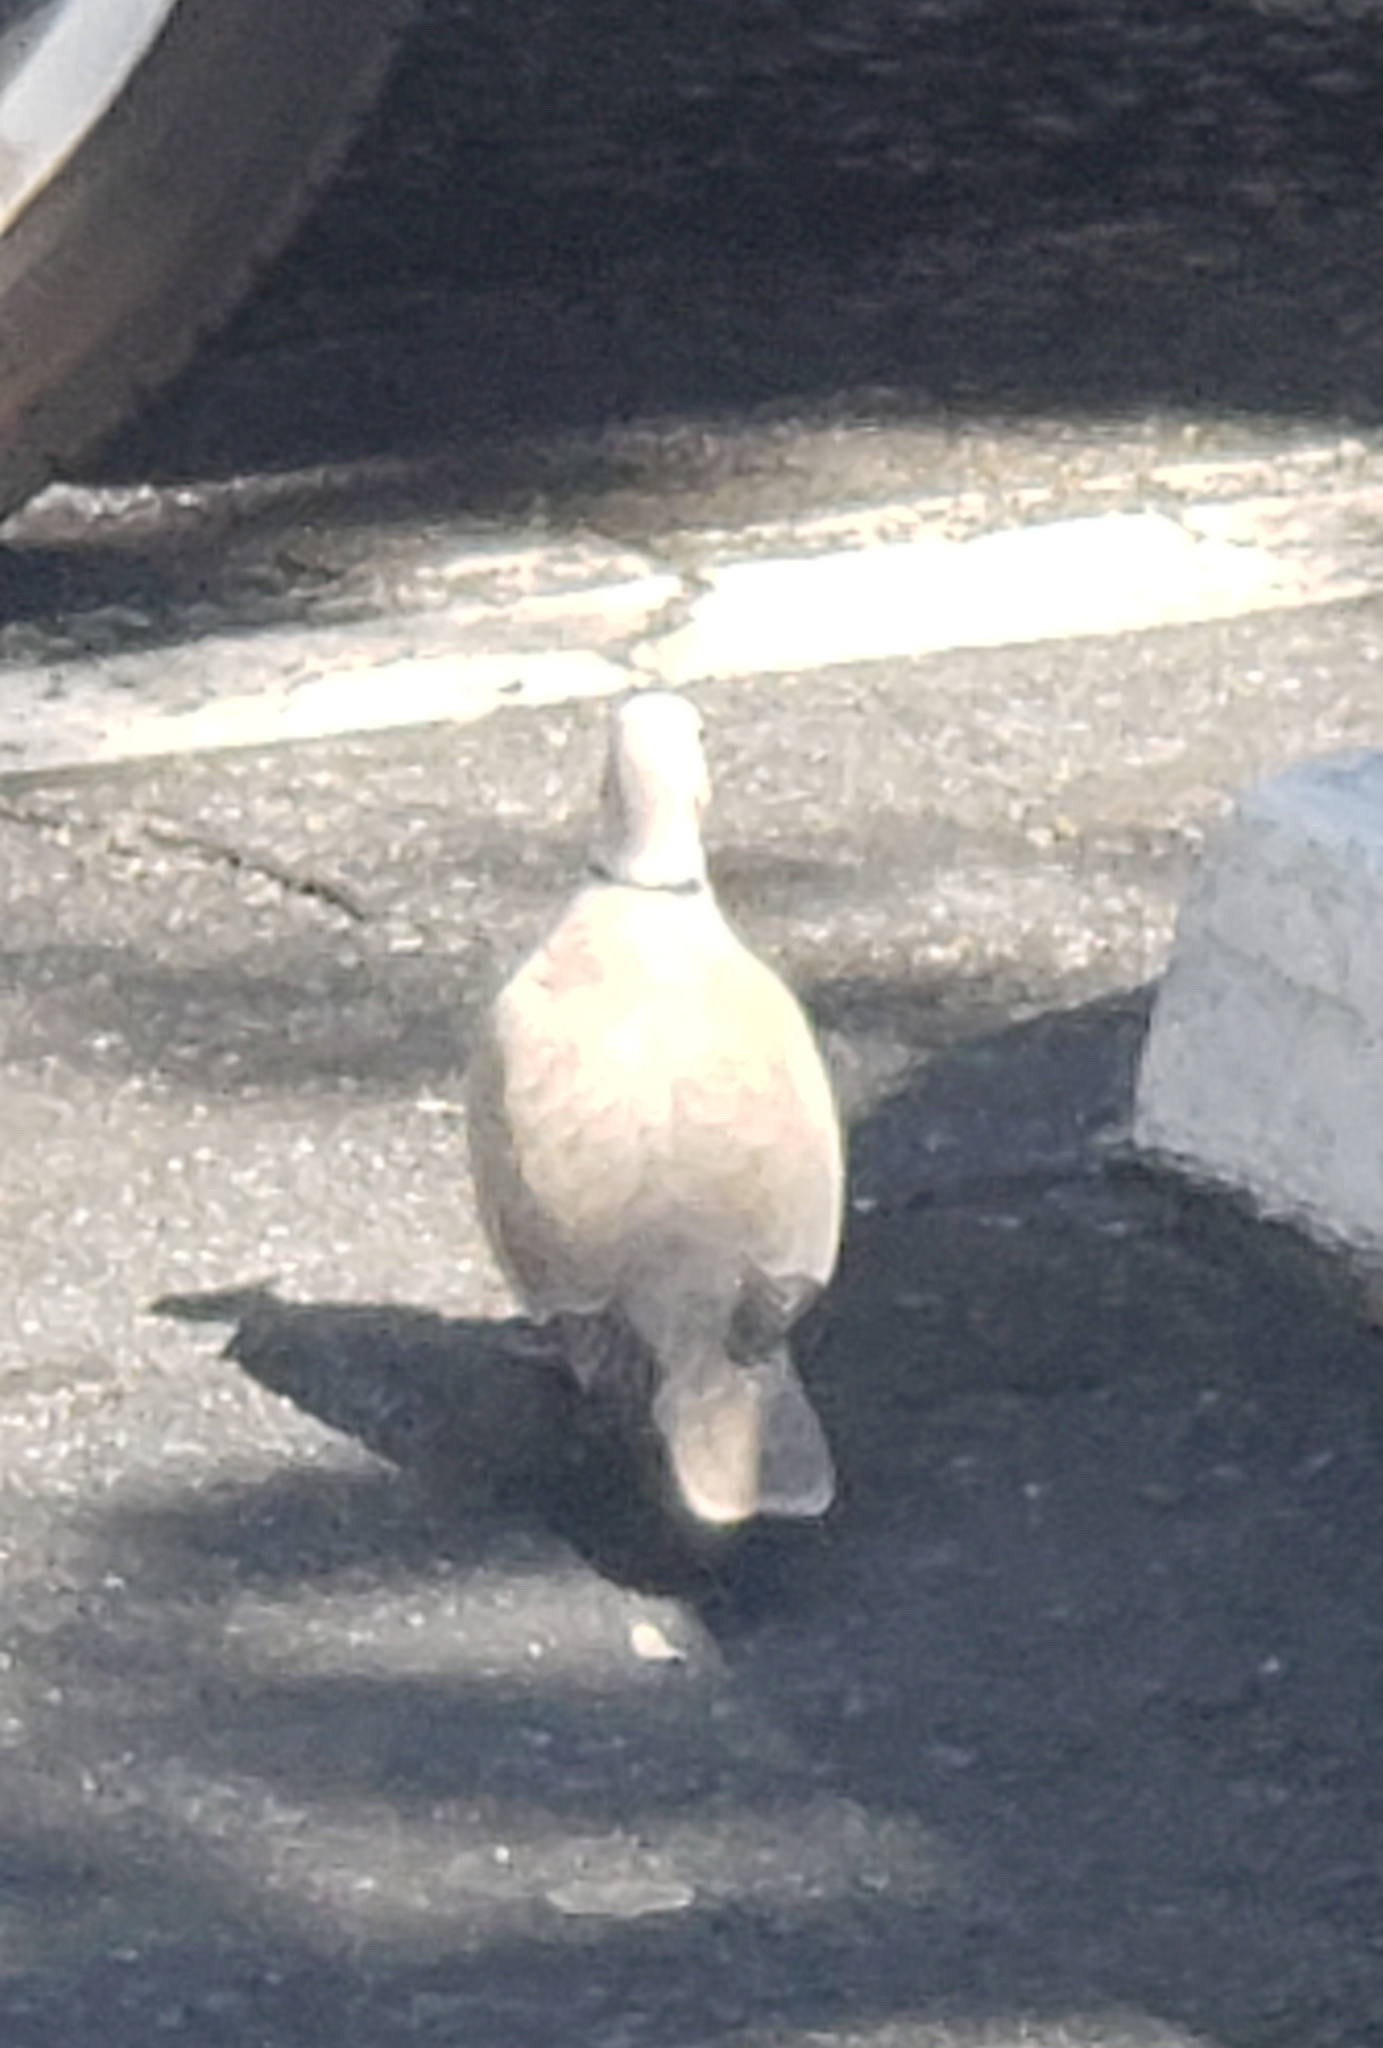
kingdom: Animalia
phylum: Chordata
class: Aves
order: Columbiformes
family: Columbidae
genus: Streptopelia
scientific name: Streptopelia decaocto
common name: Eurasian collared dove
